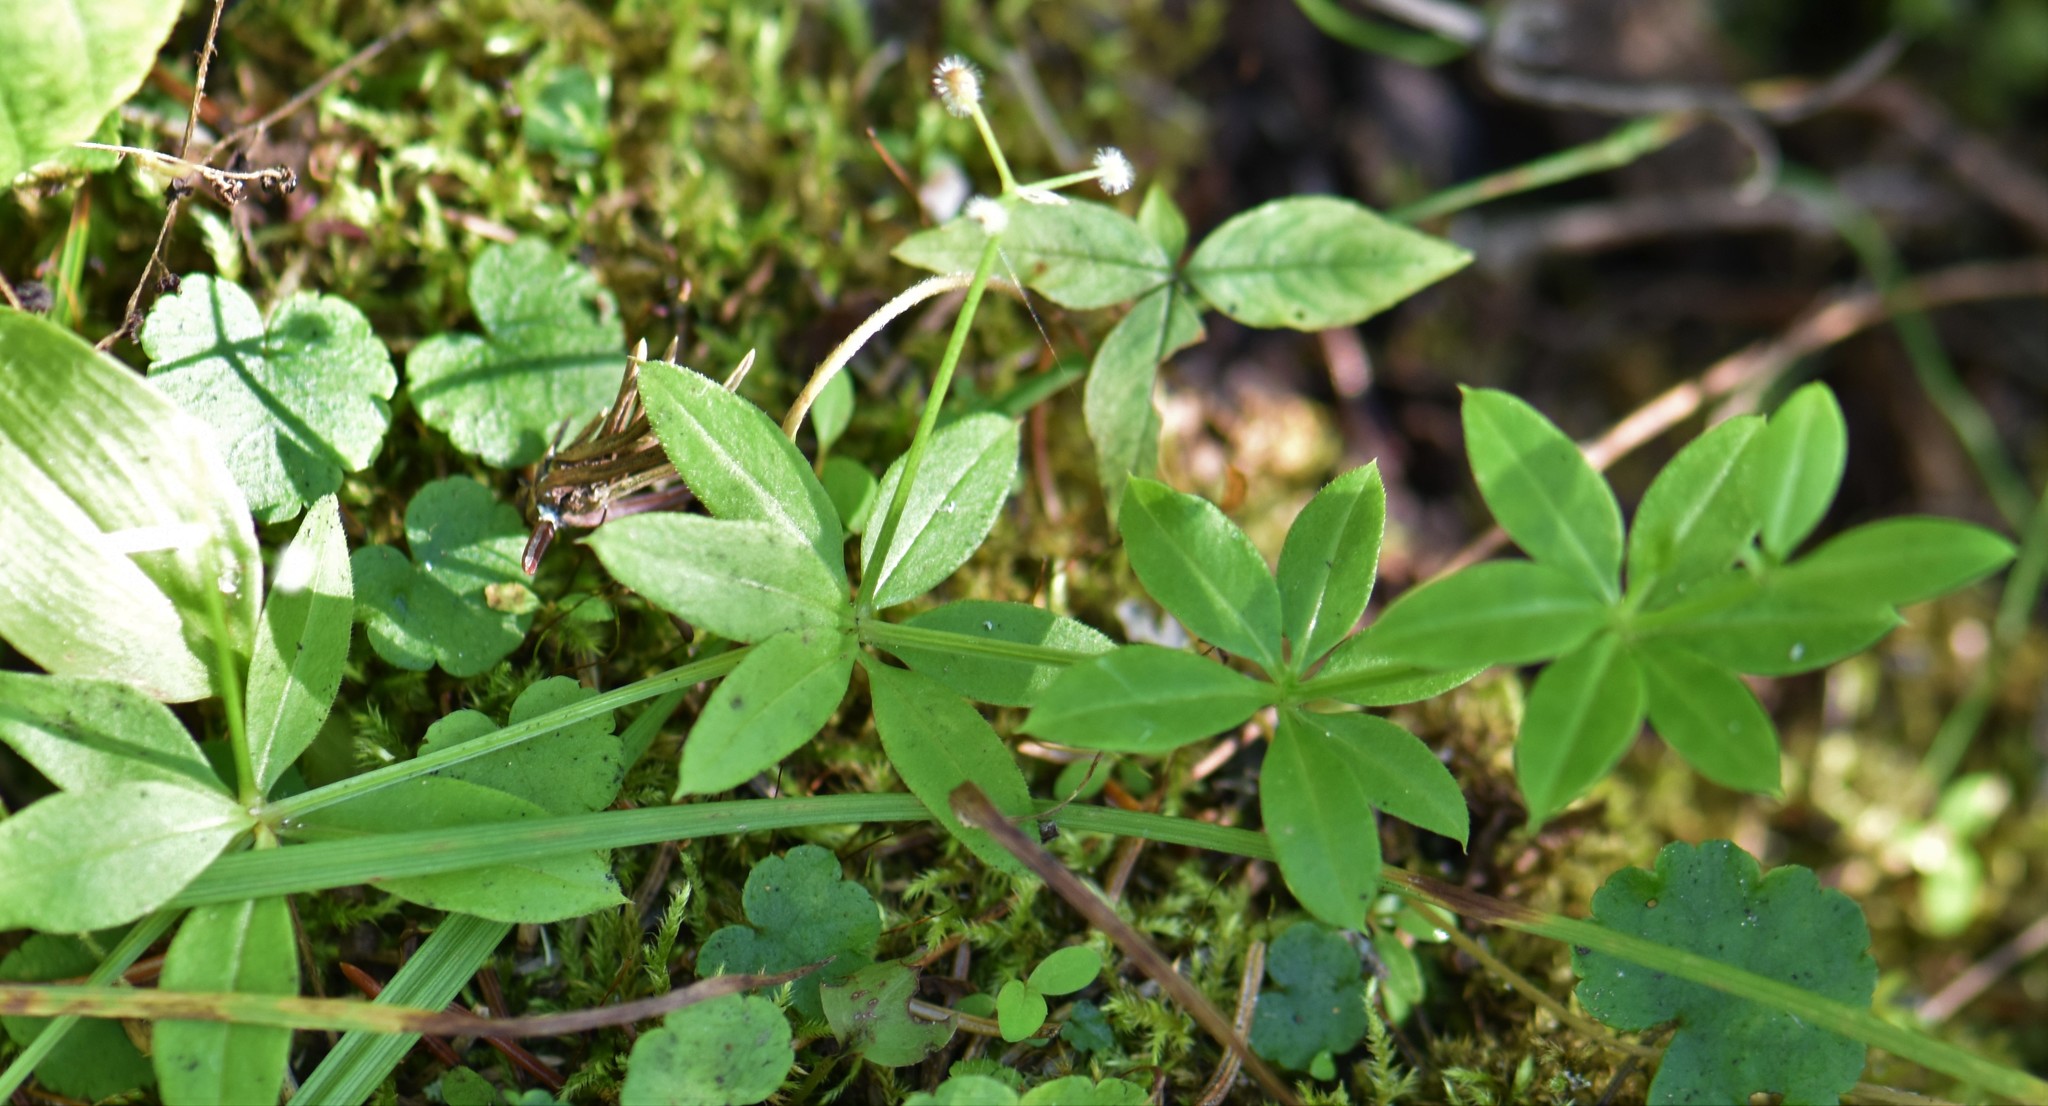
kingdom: Plantae
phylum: Tracheophyta
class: Magnoliopsida
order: Gentianales
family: Rubiaceae
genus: Galium
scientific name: Galium triflorum
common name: Fragrant bedstraw
